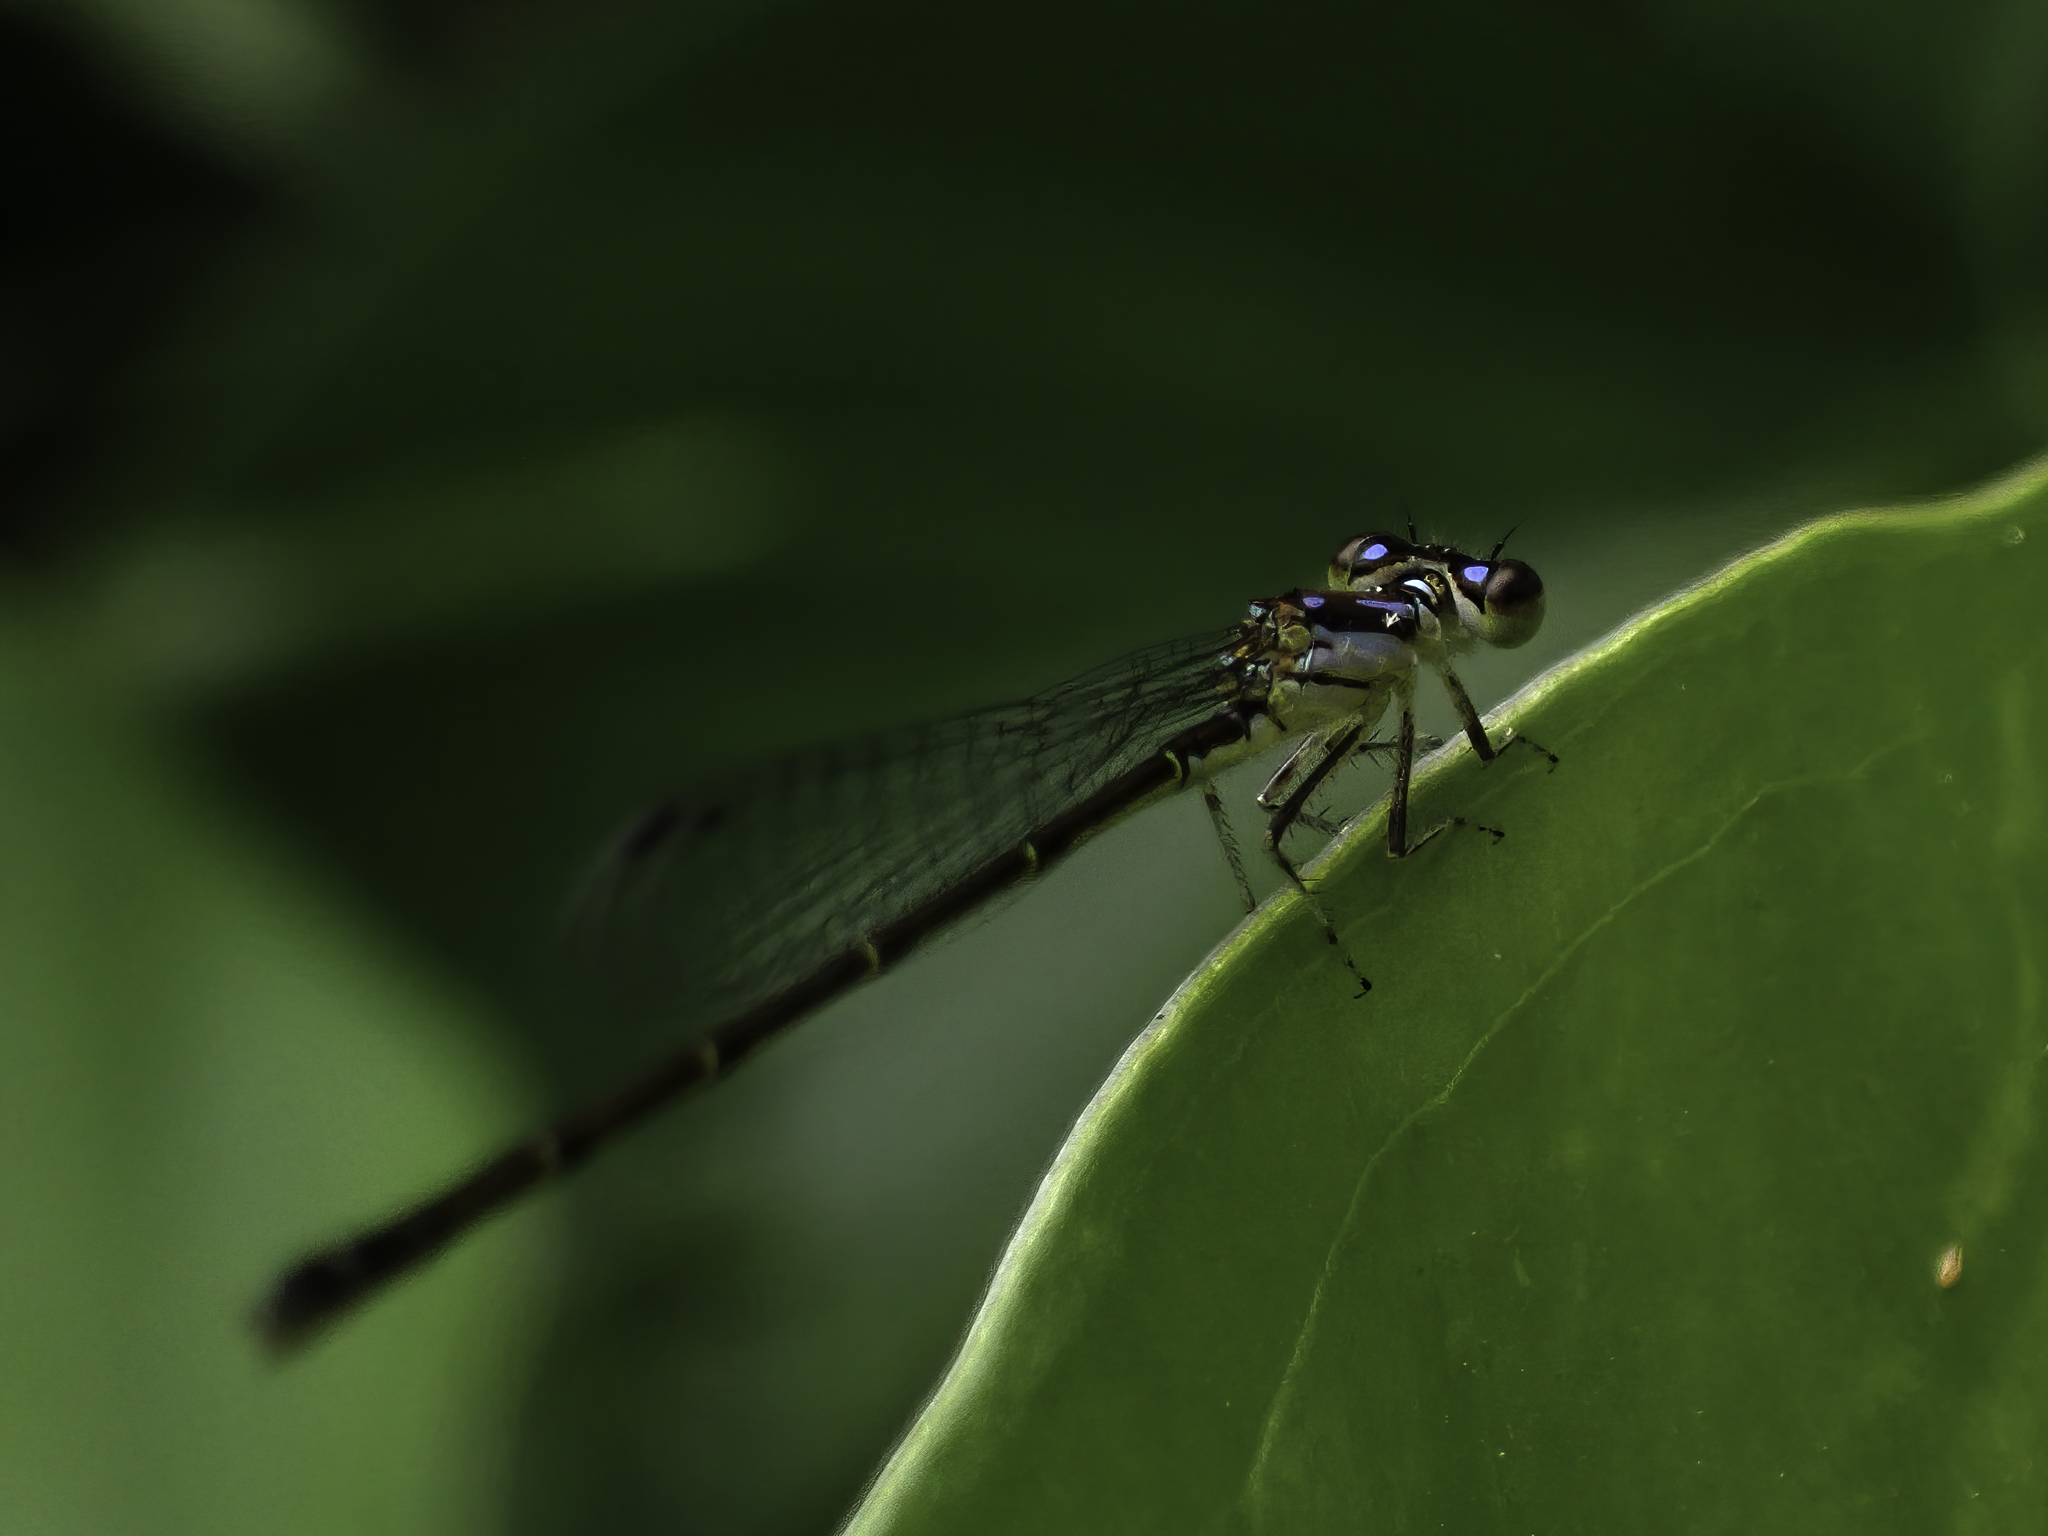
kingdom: Animalia
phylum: Arthropoda
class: Insecta
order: Odonata
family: Coenagrionidae
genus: Ischnura
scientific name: Ischnura posita
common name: Fragile forktail
